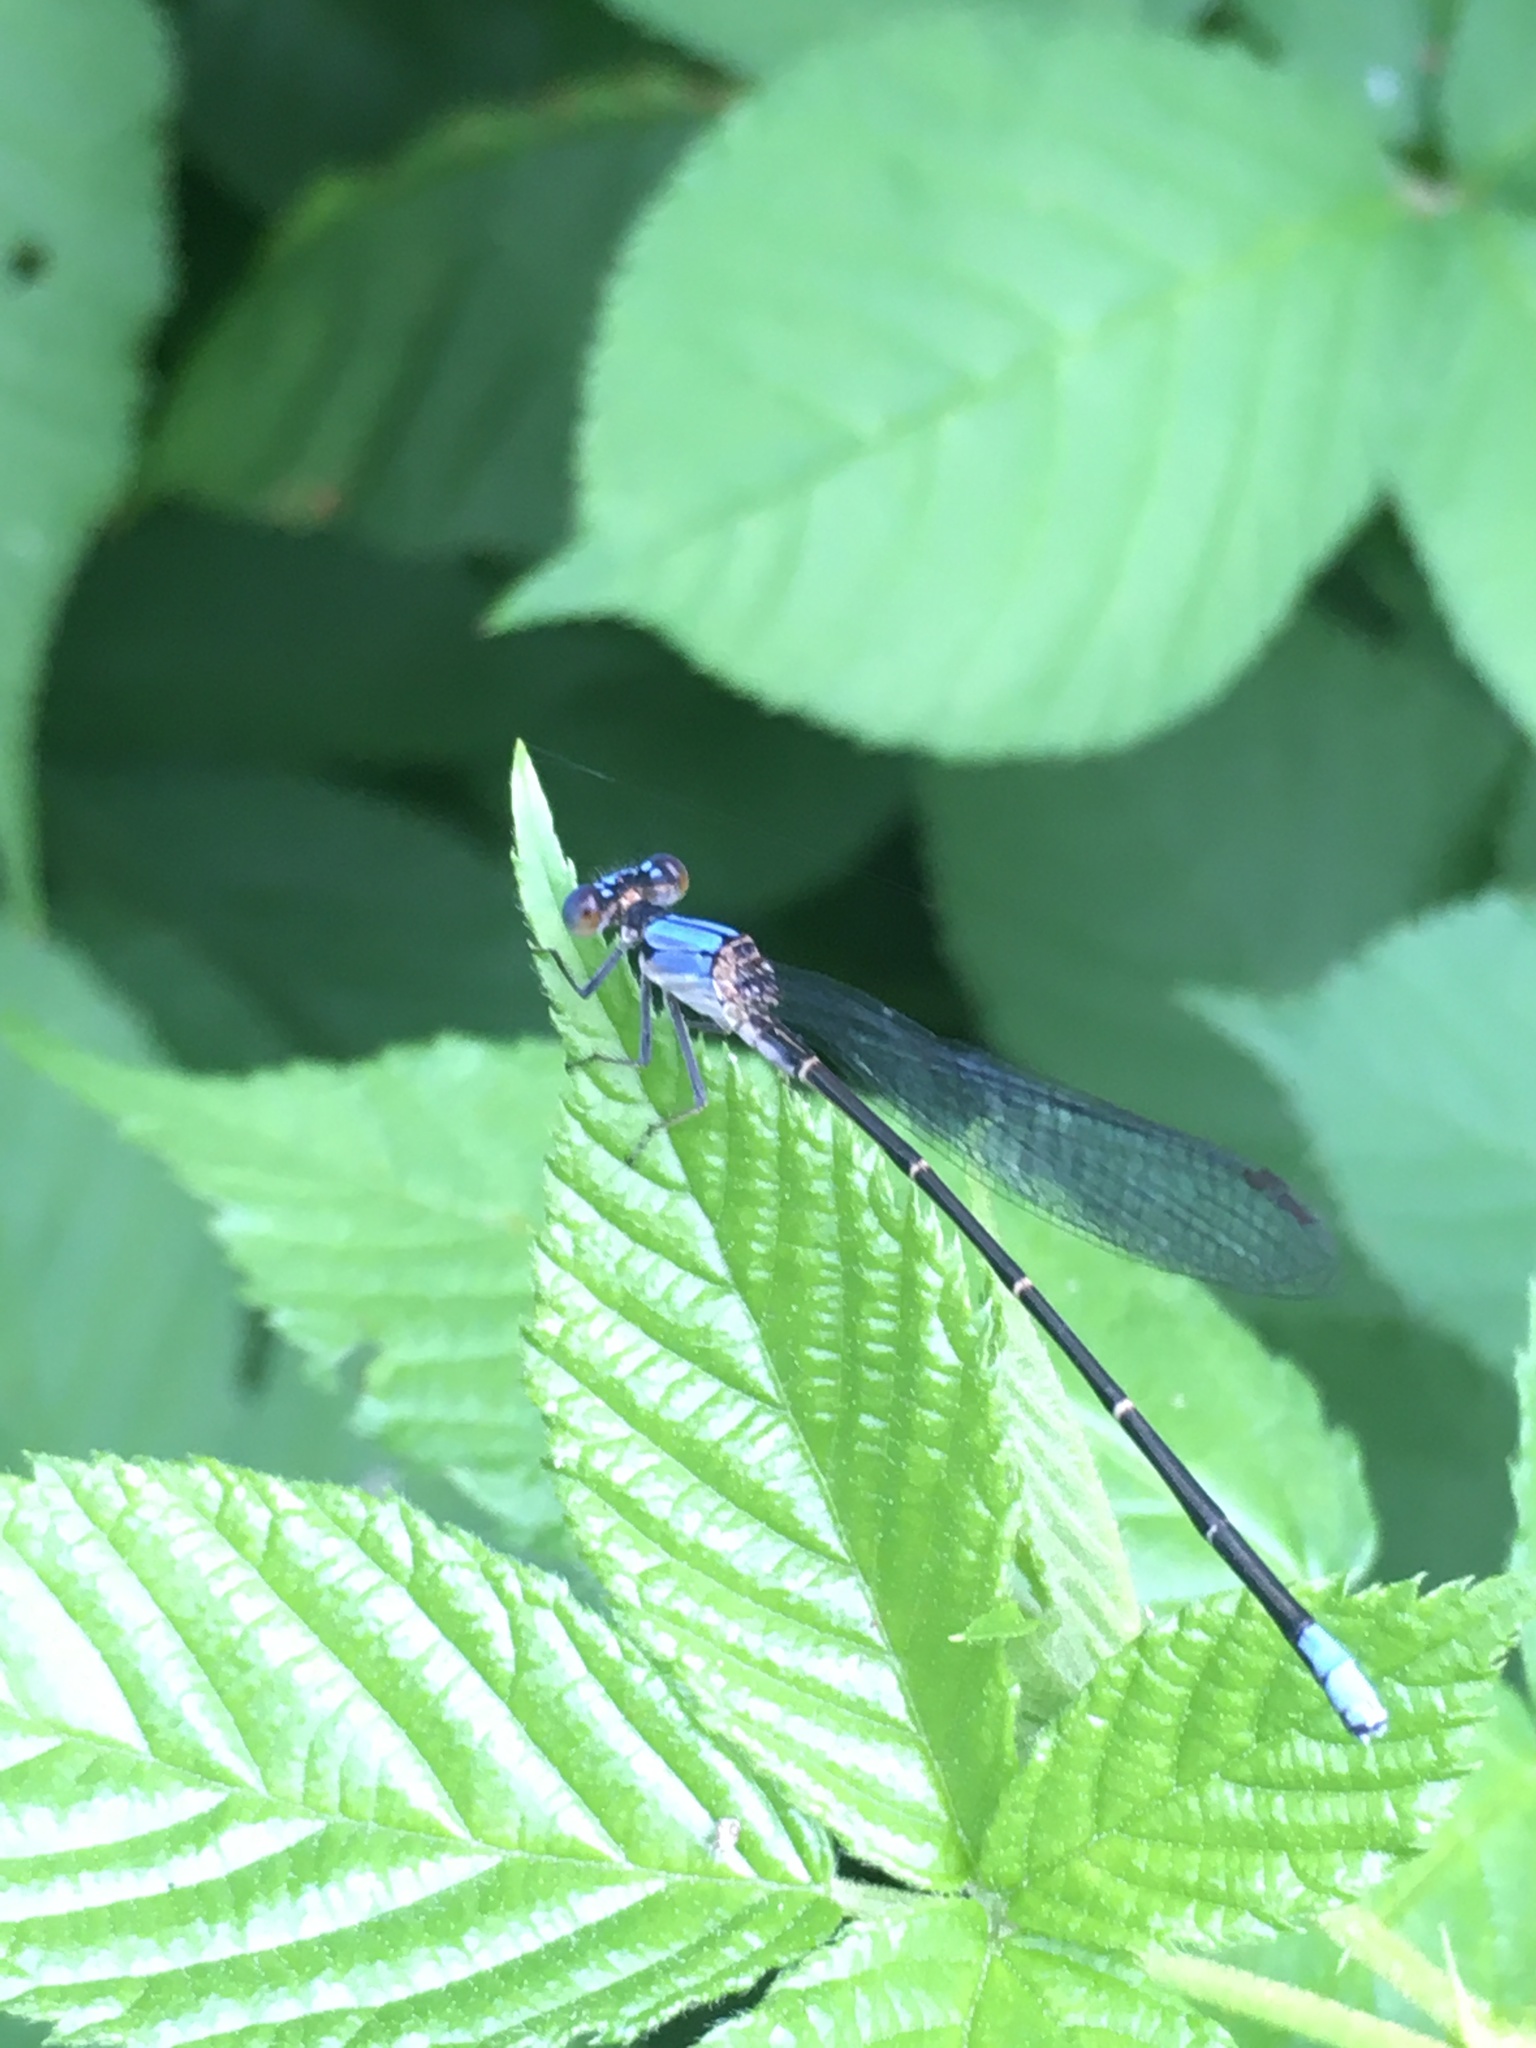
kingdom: Animalia
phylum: Arthropoda
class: Insecta
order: Odonata
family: Coenagrionidae
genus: Argia
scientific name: Argia apicalis
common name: Blue-fronted dancer
